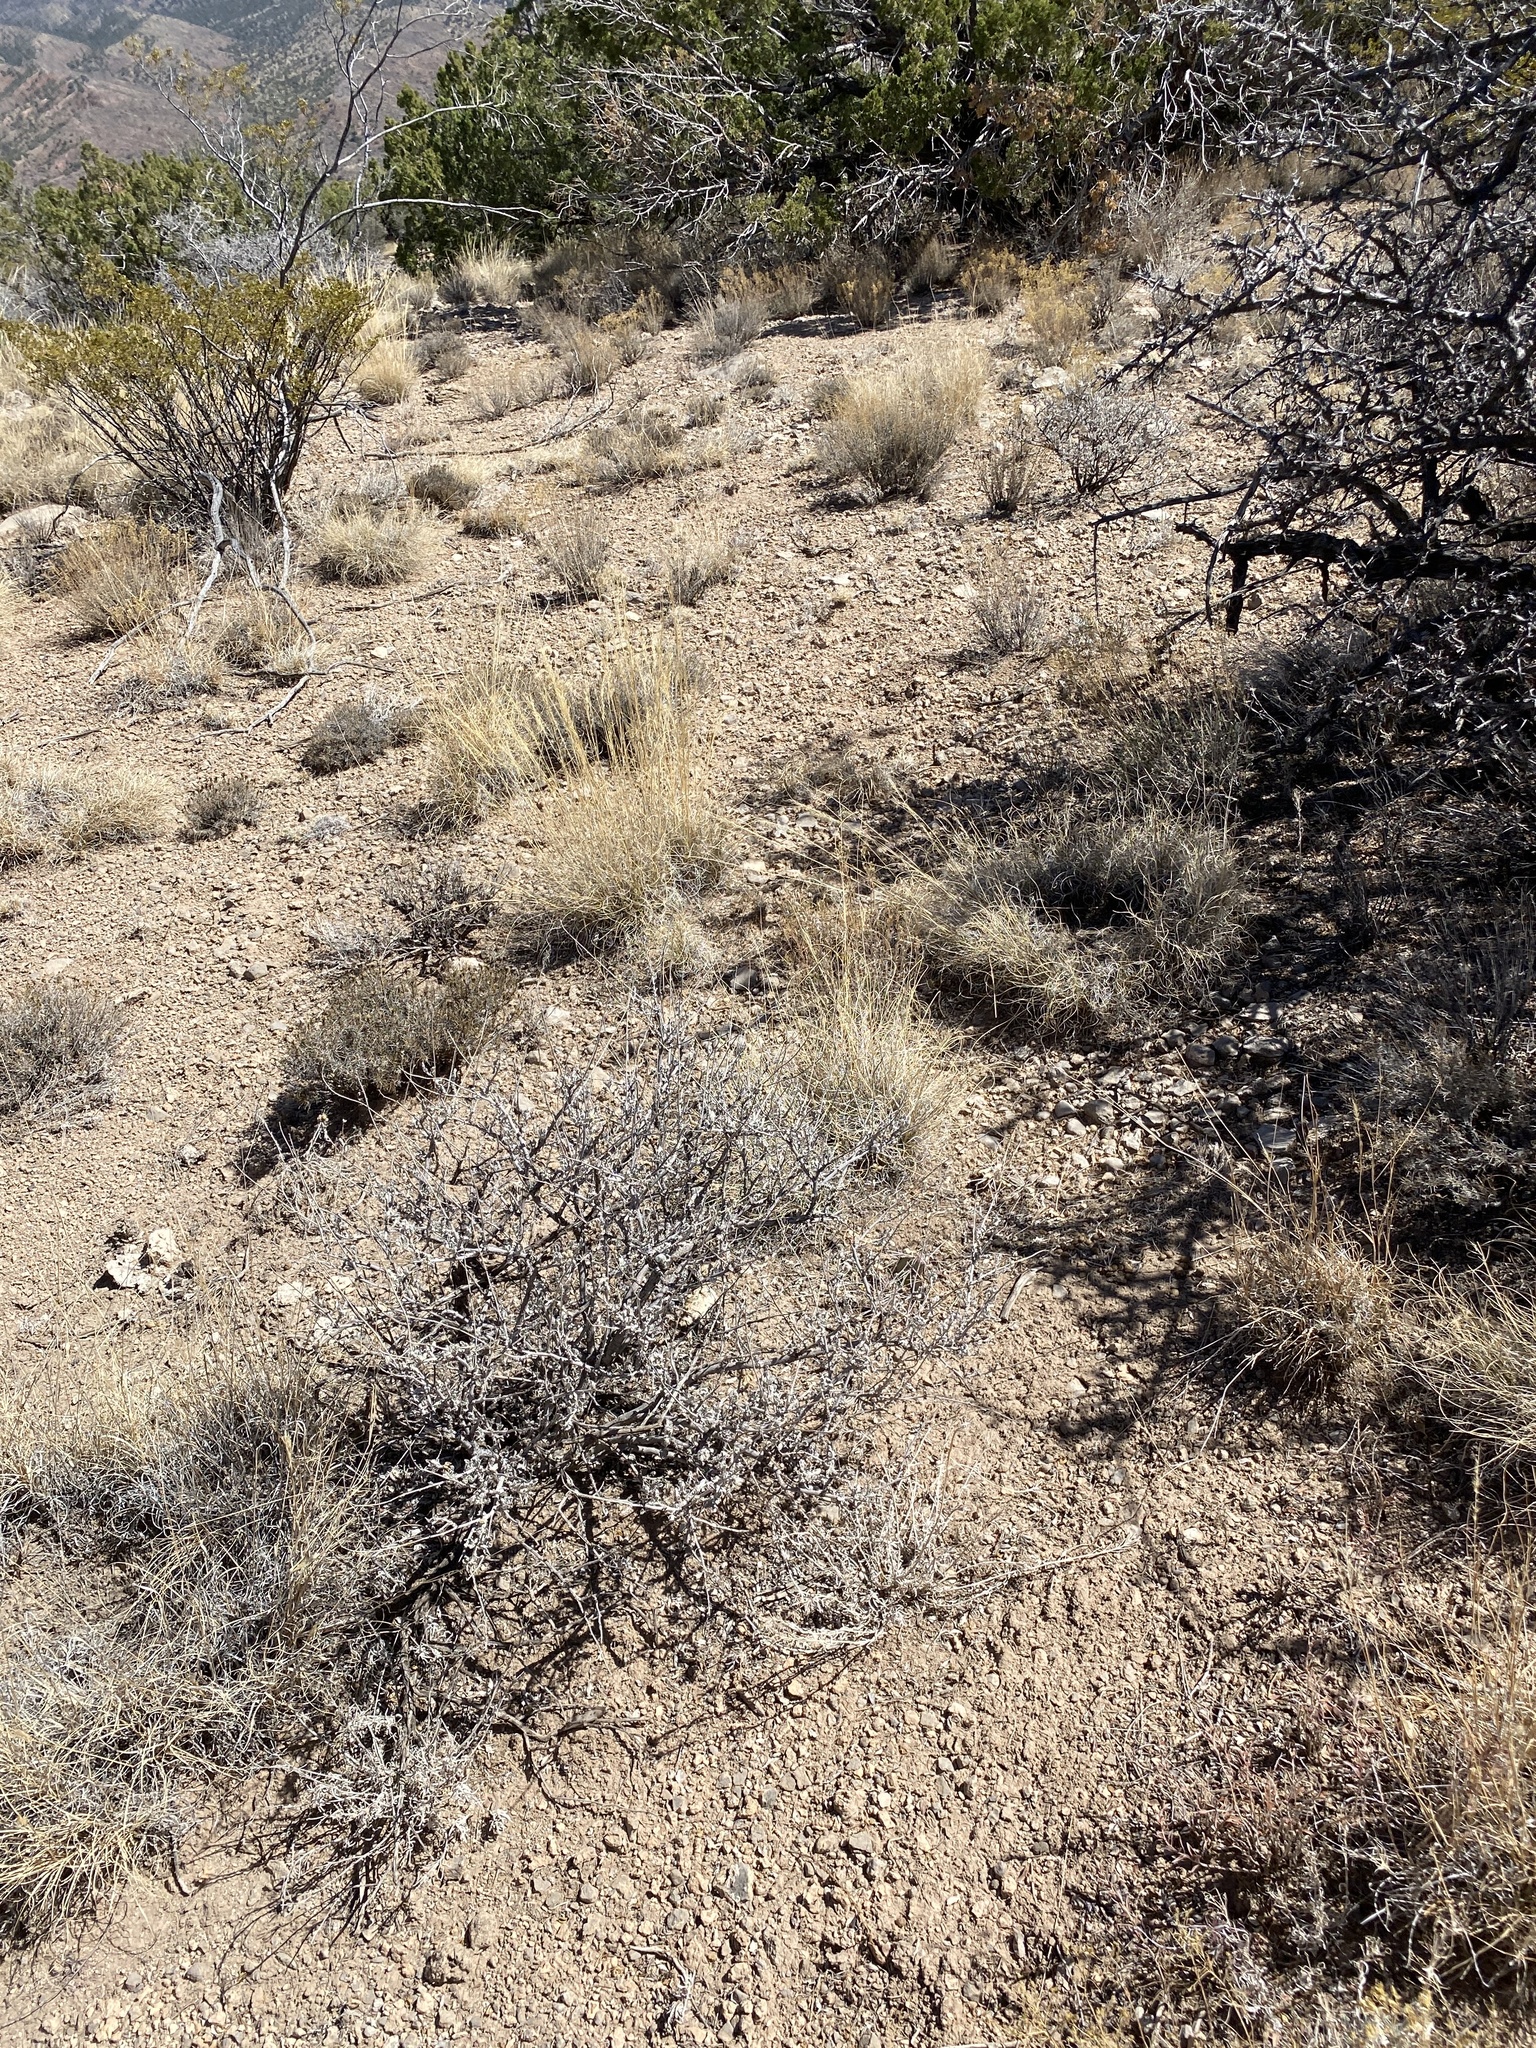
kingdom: Plantae
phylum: Tracheophyta
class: Magnoliopsida
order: Asterales
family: Asteraceae
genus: Parthenium
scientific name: Parthenium incanum
